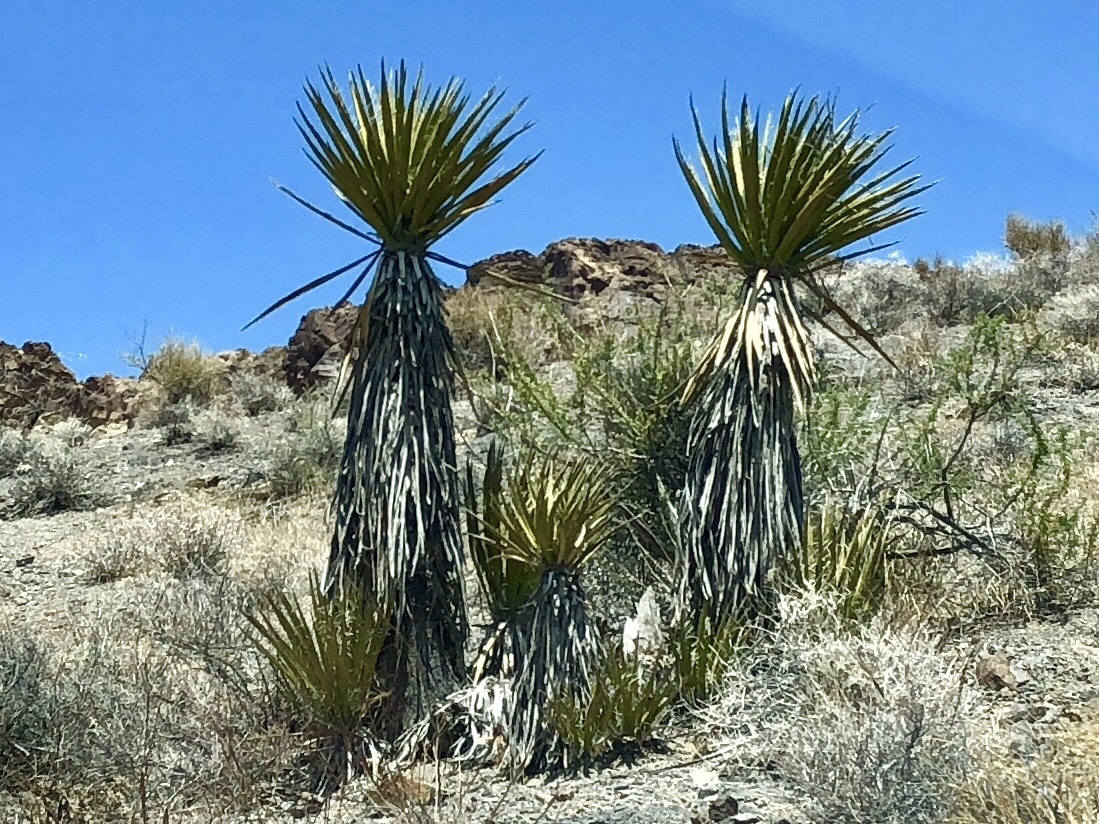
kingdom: Plantae
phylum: Tracheophyta
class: Liliopsida
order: Asparagales
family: Asparagaceae
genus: Yucca
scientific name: Yucca schidigera
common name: Mojave yucca
